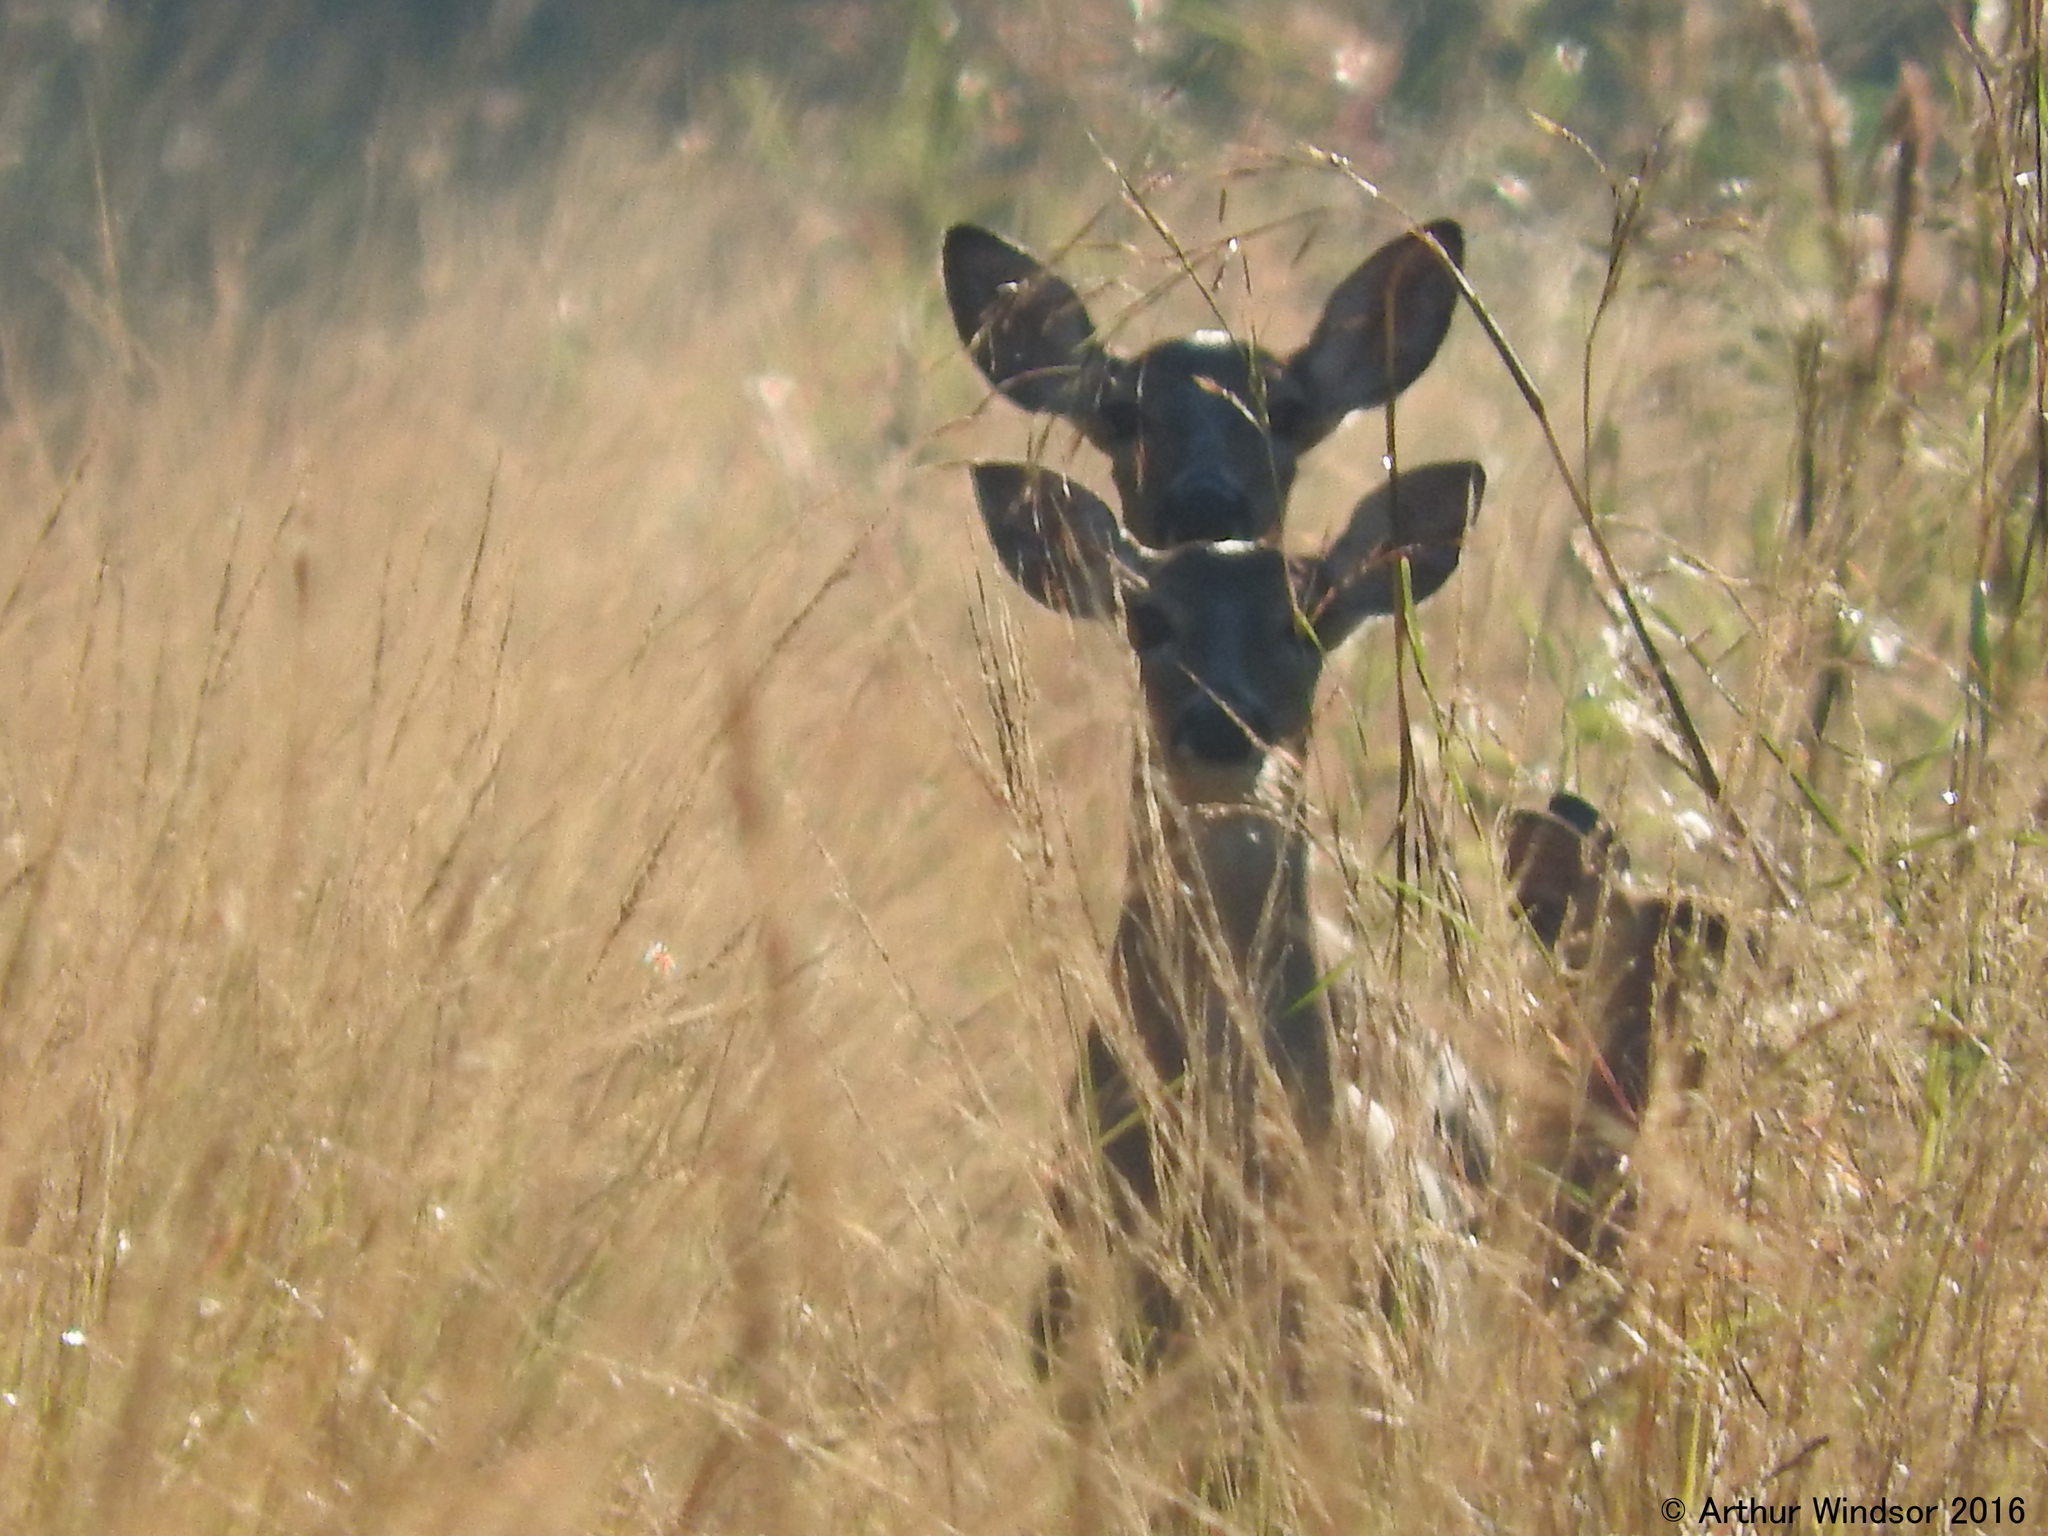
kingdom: Animalia
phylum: Chordata
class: Mammalia
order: Artiodactyla
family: Cervidae
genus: Odocoileus
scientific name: Odocoileus virginianus
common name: White-tailed deer
